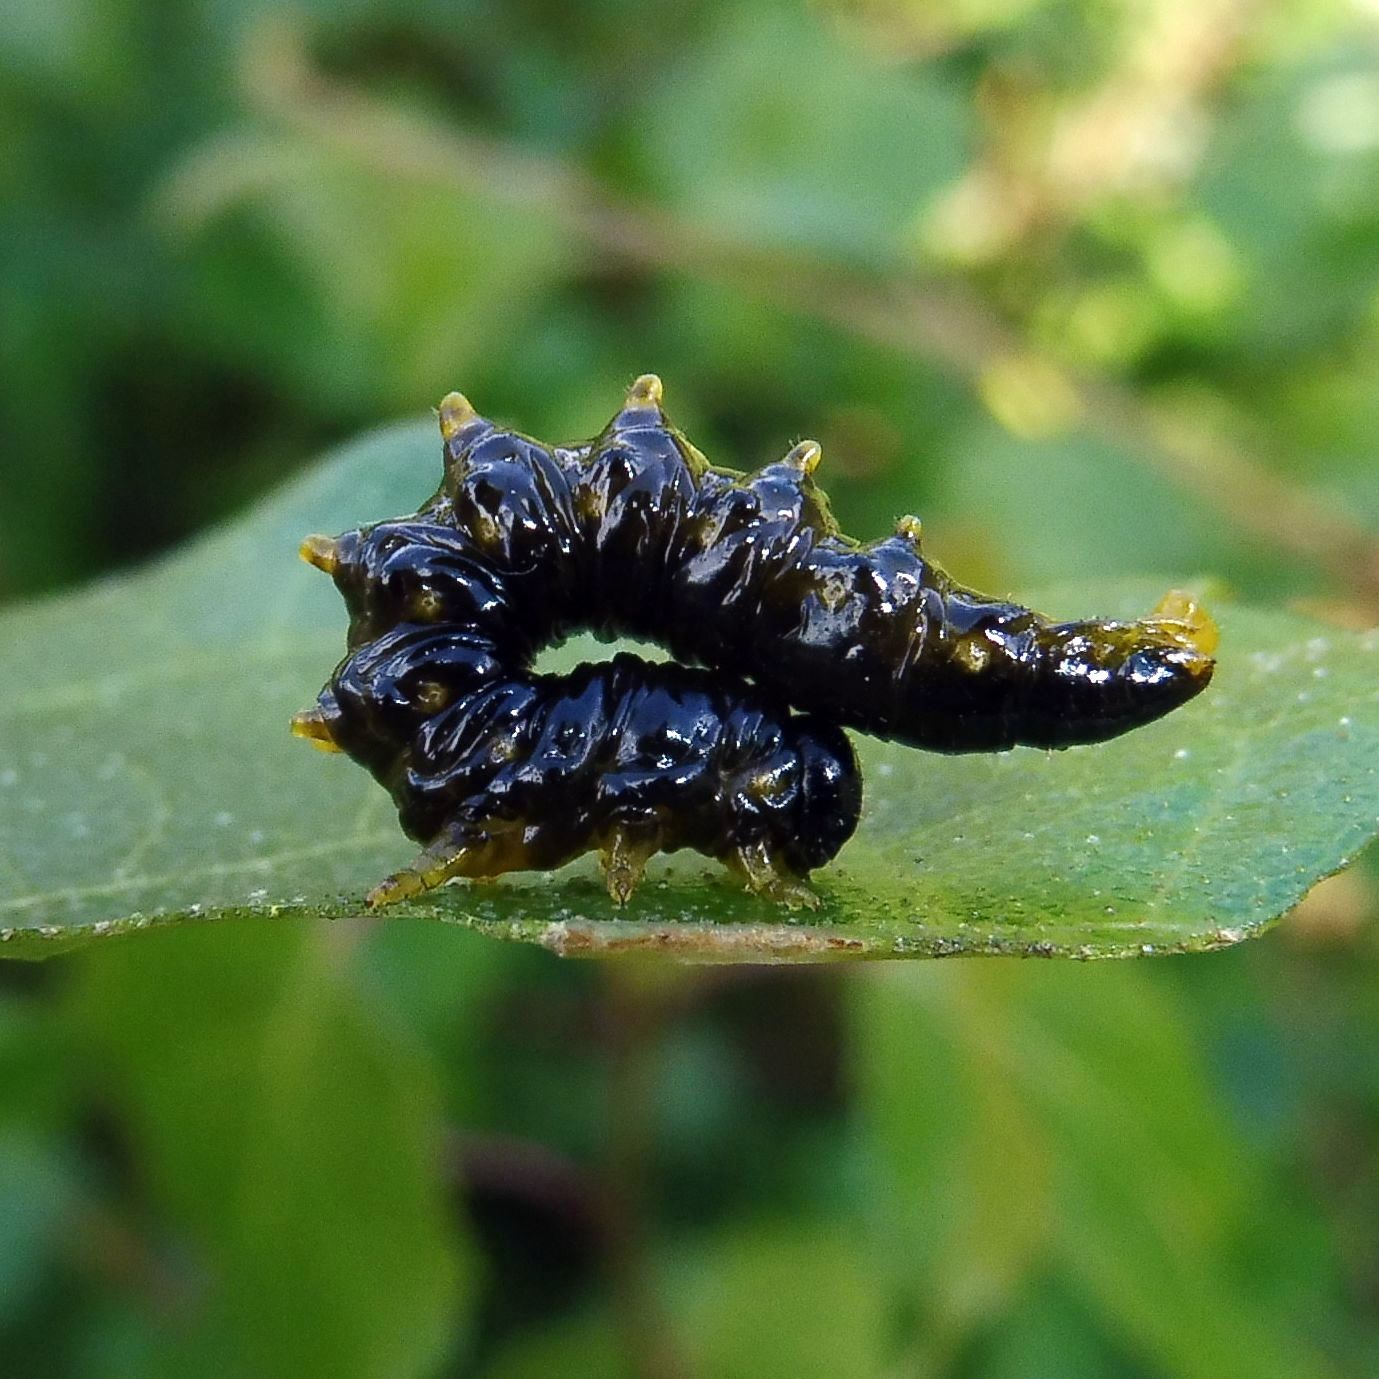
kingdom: Animalia
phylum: Arthropoda
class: Insecta
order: Hymenoptera
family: Tenthredinidae
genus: Craesus
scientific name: Craesus latipes
